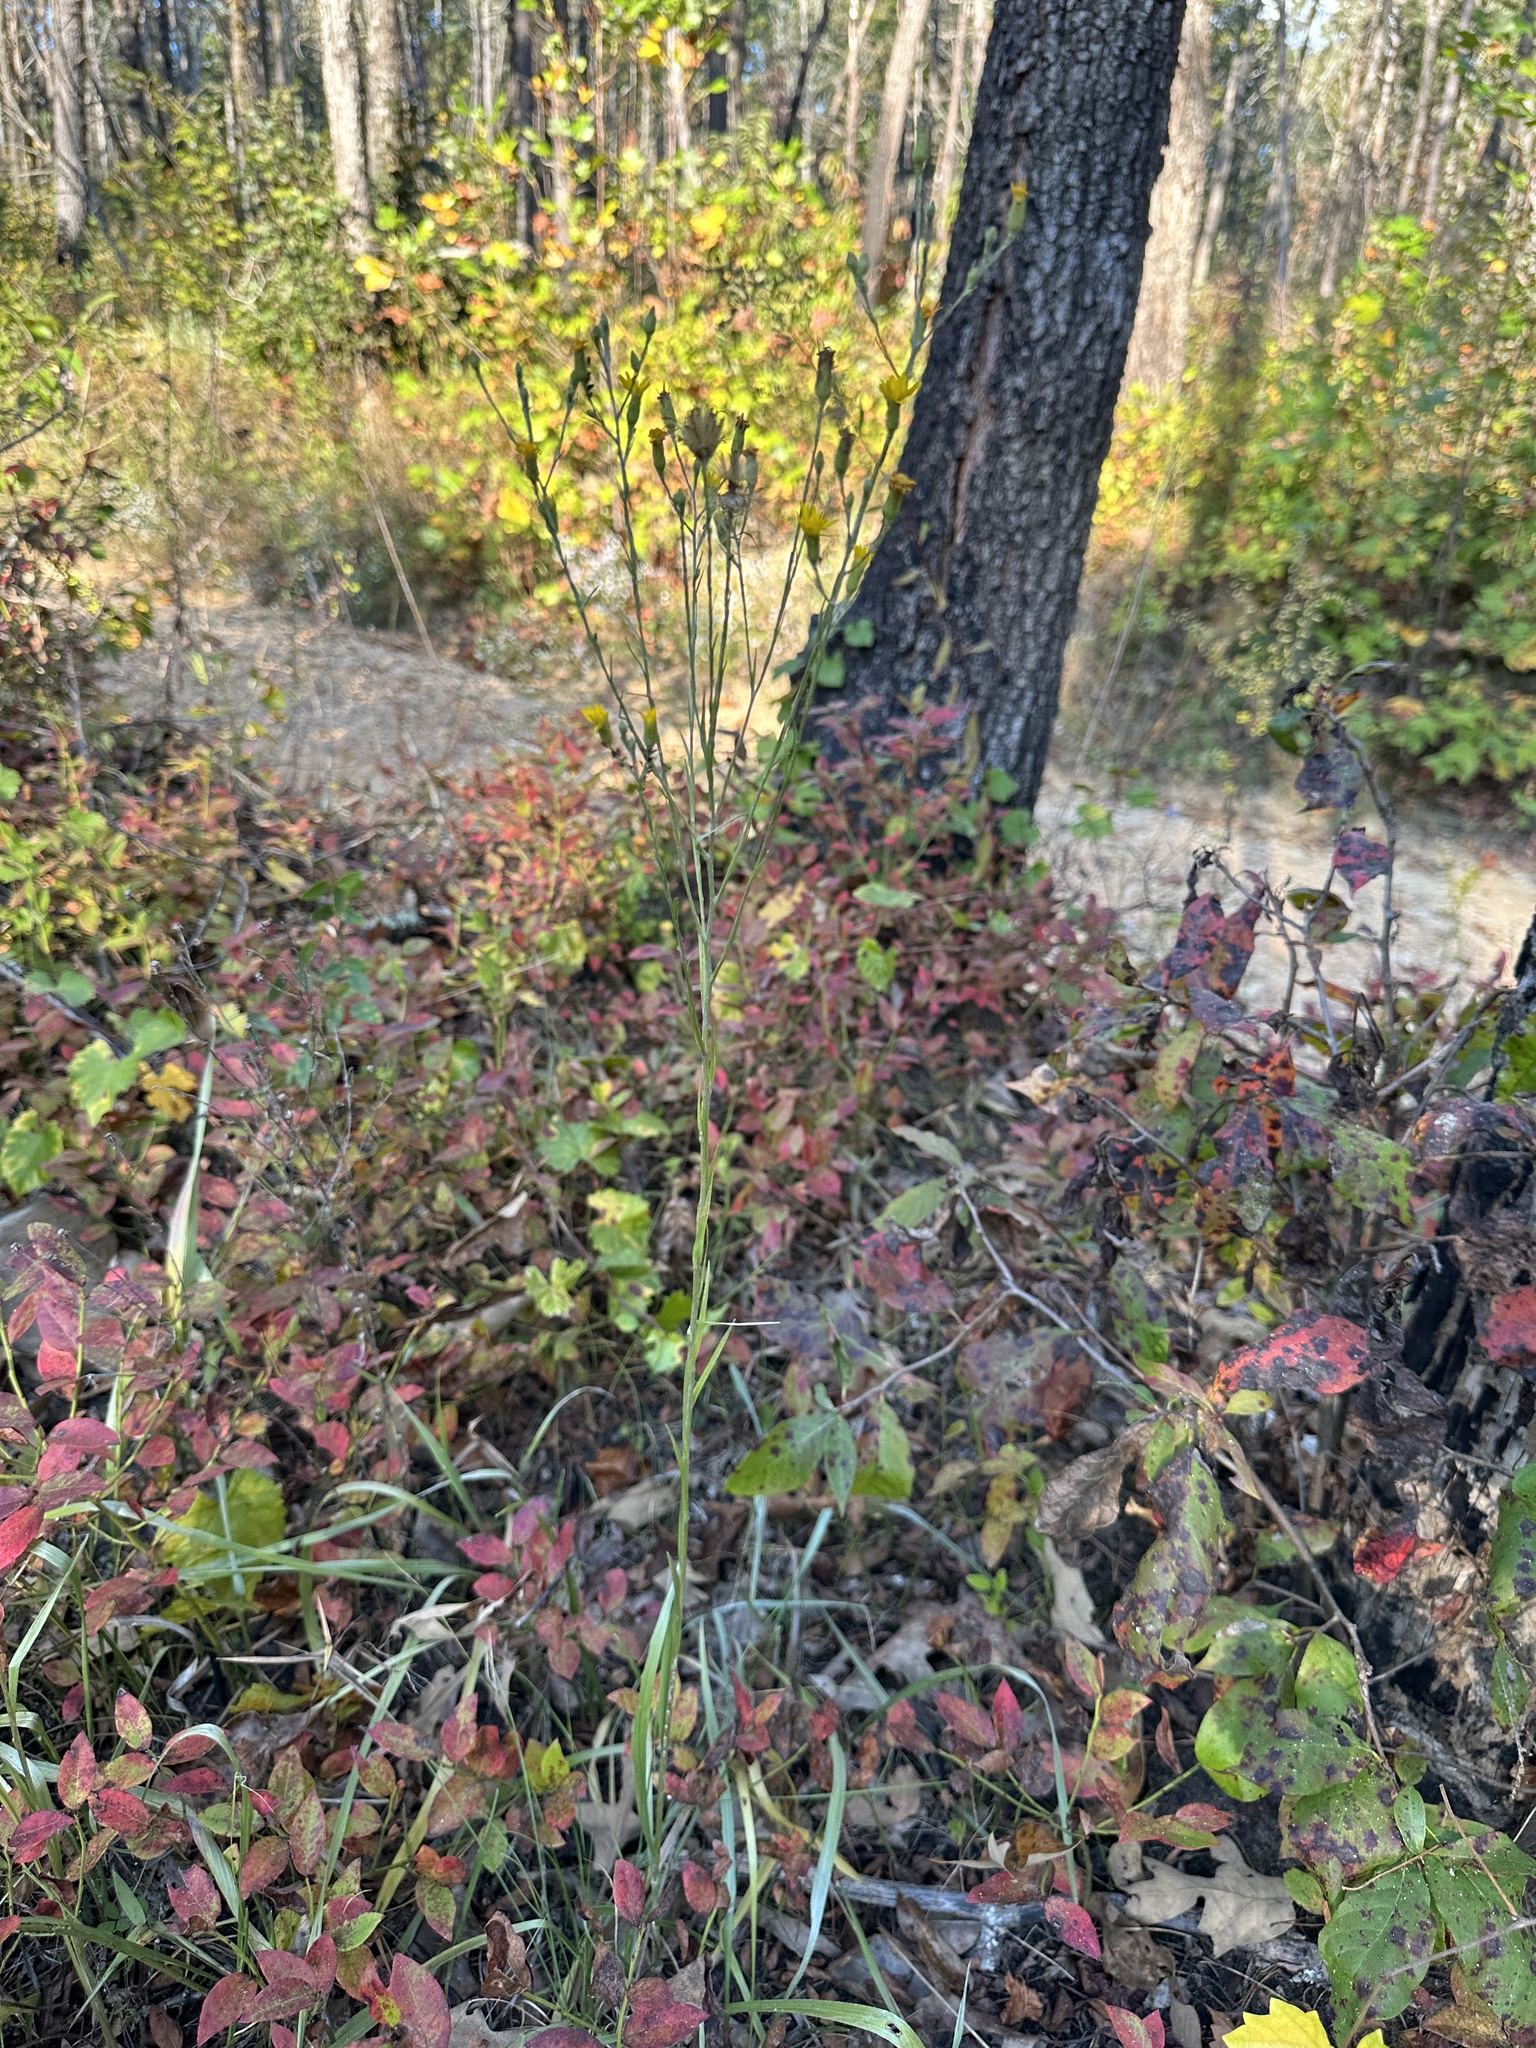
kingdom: Plantae
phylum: Tracheophyta
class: Magnoliopsida
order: Asterales
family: Asteraceae
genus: Pityopsis
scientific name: Pityopsis graminifolia
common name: Grass-leaf golden-aster
